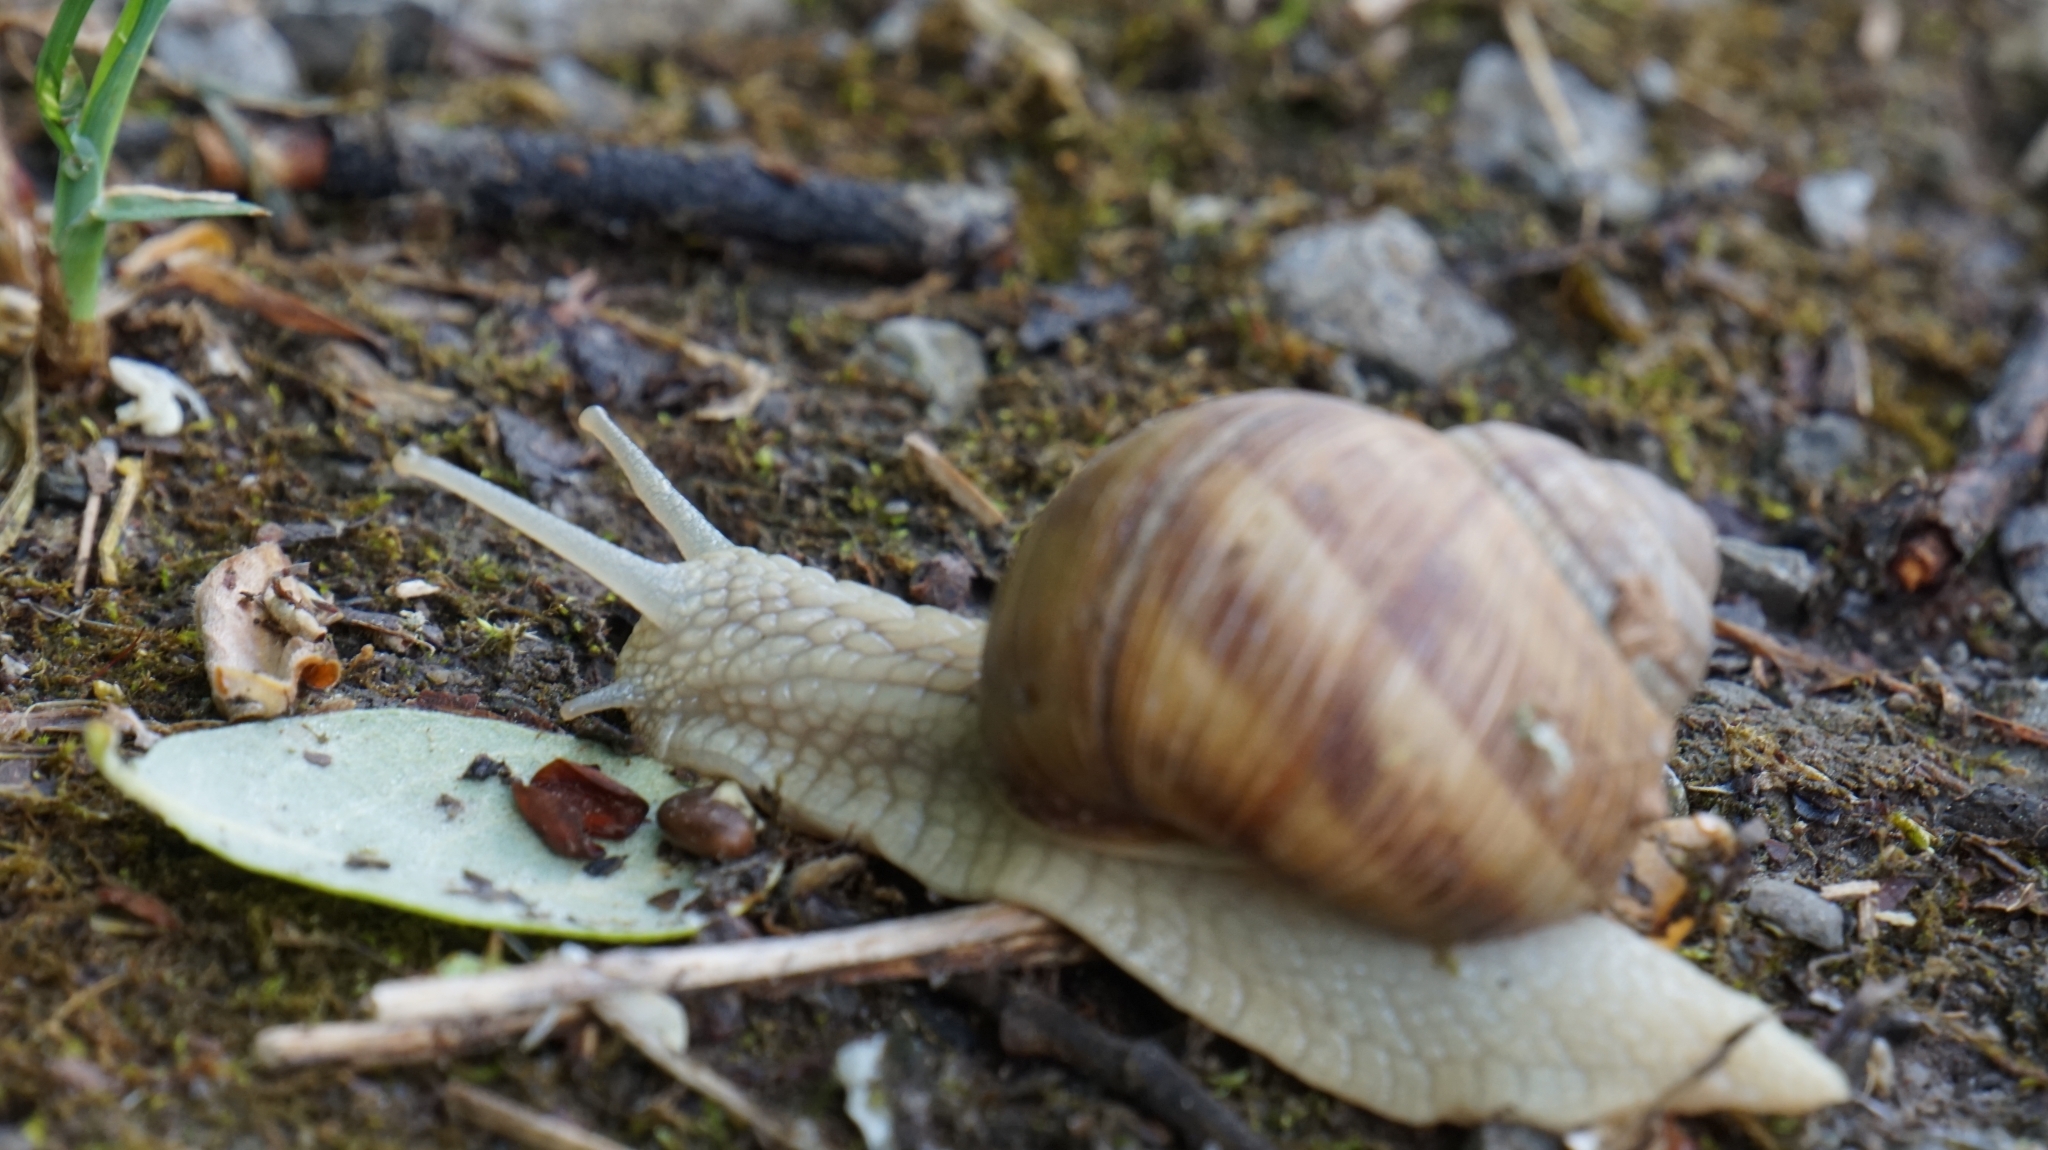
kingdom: Animalia
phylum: Mollusca
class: Gastropoda
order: Stylommatophora
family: Helicidae
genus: Helix
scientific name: Helix pomatia
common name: Roman snail
